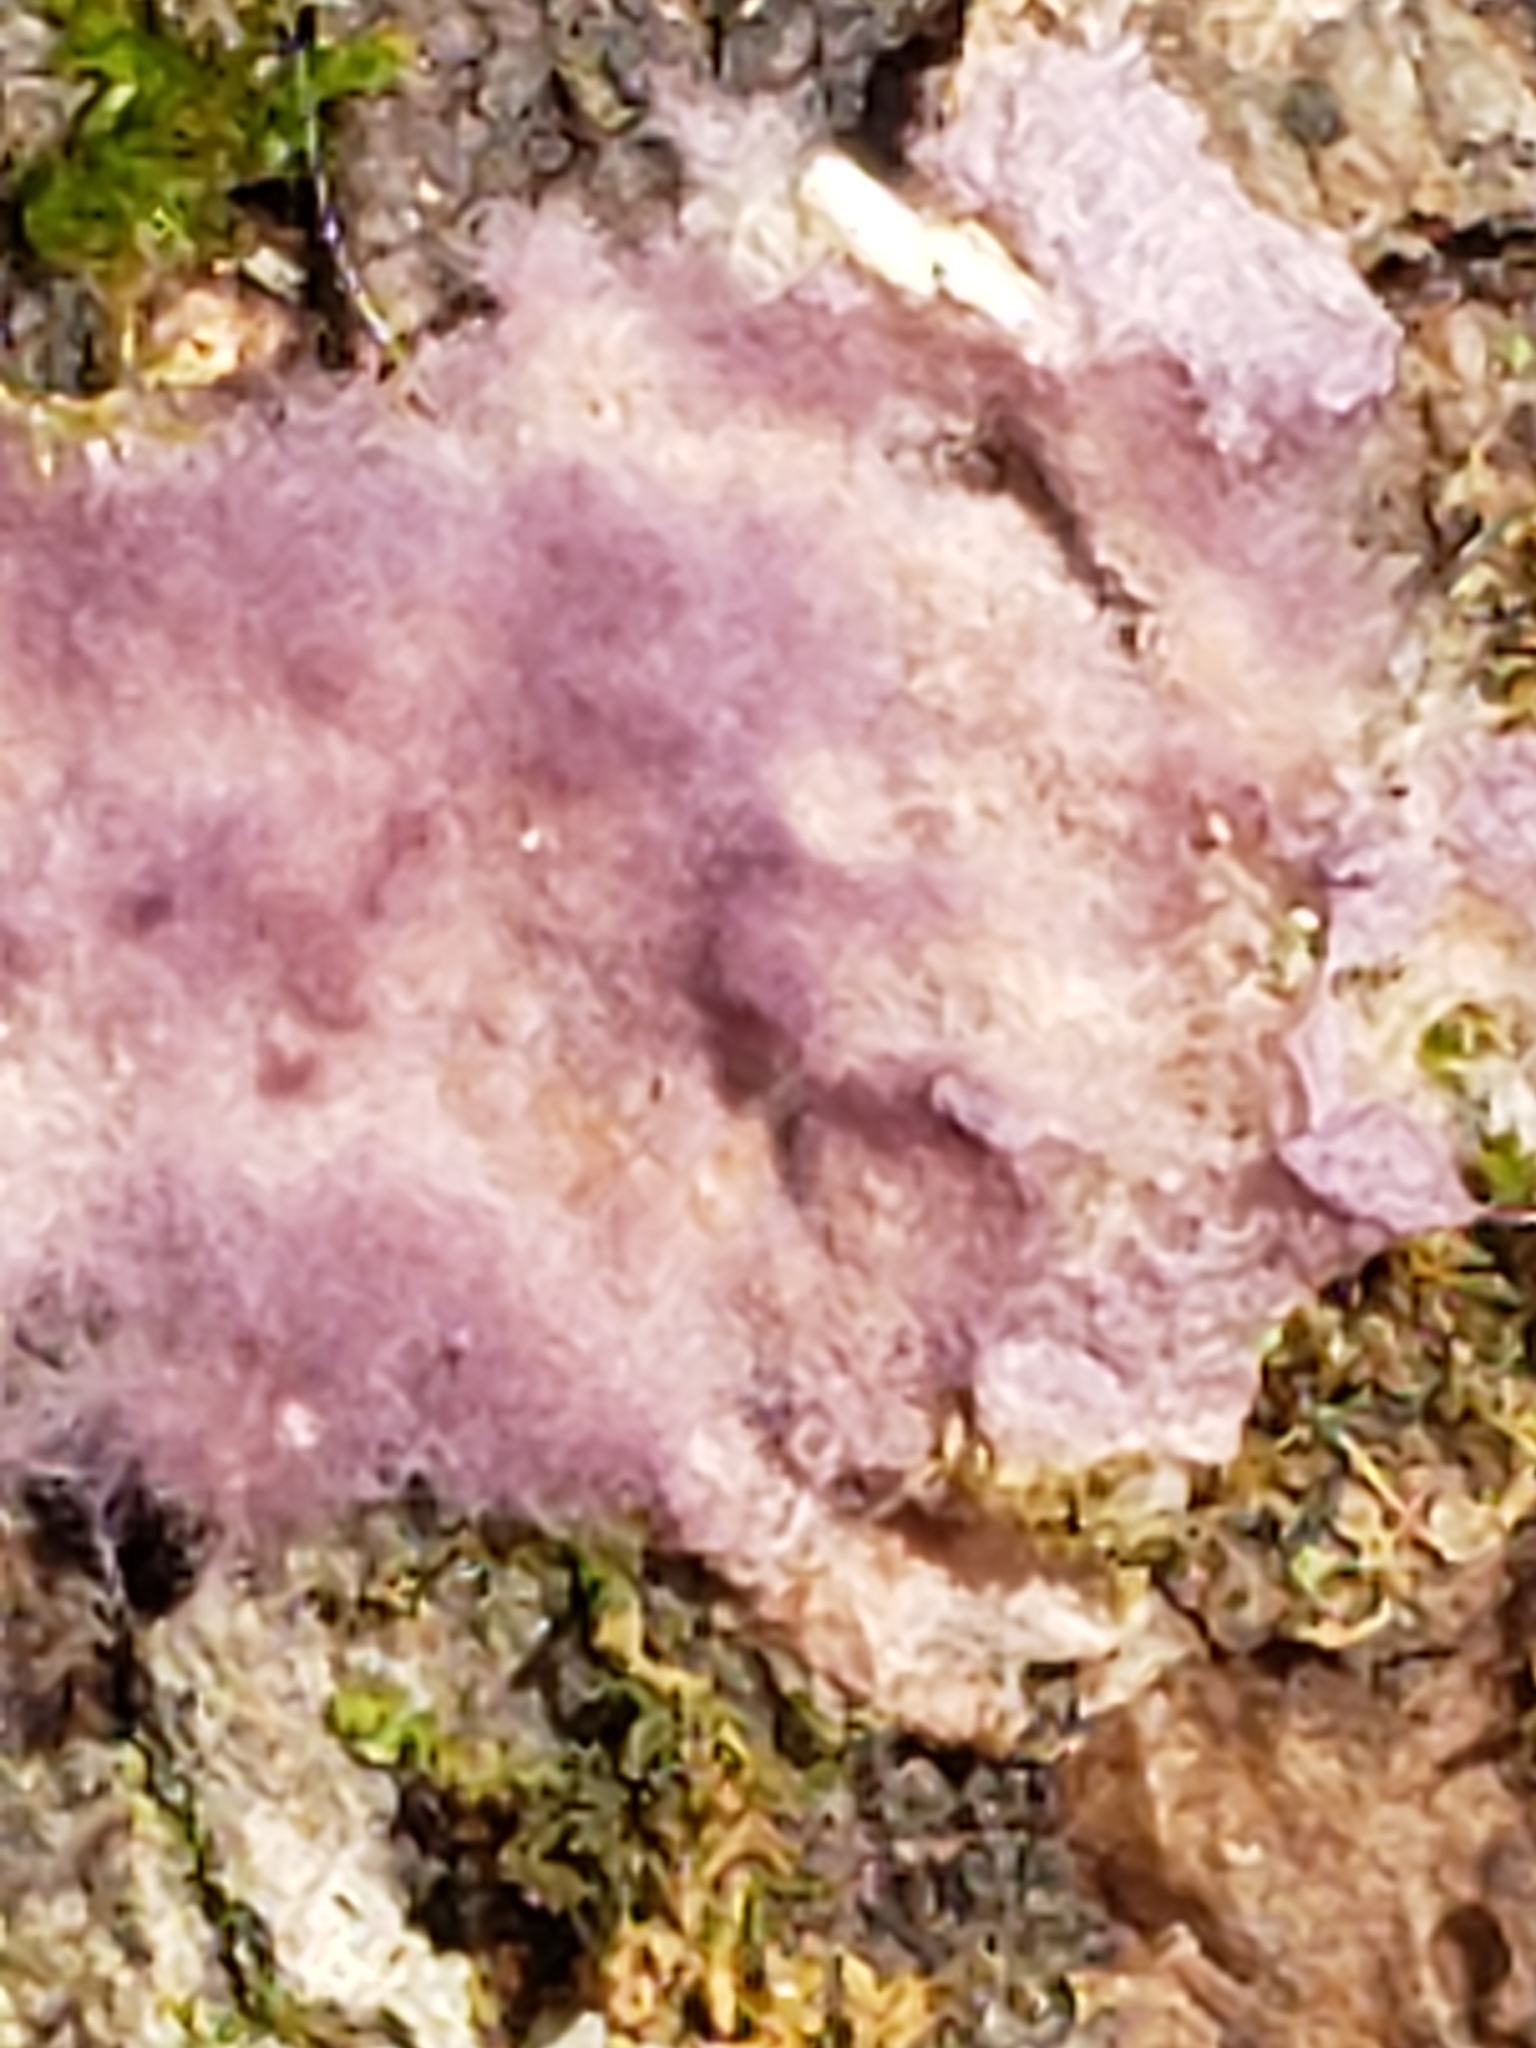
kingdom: Fungi
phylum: Basidiomycota
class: Agaricomycetes
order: Polyporales
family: Phanerochaetaceae
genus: Phlebiopsis
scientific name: Phlebiopsis crassa
